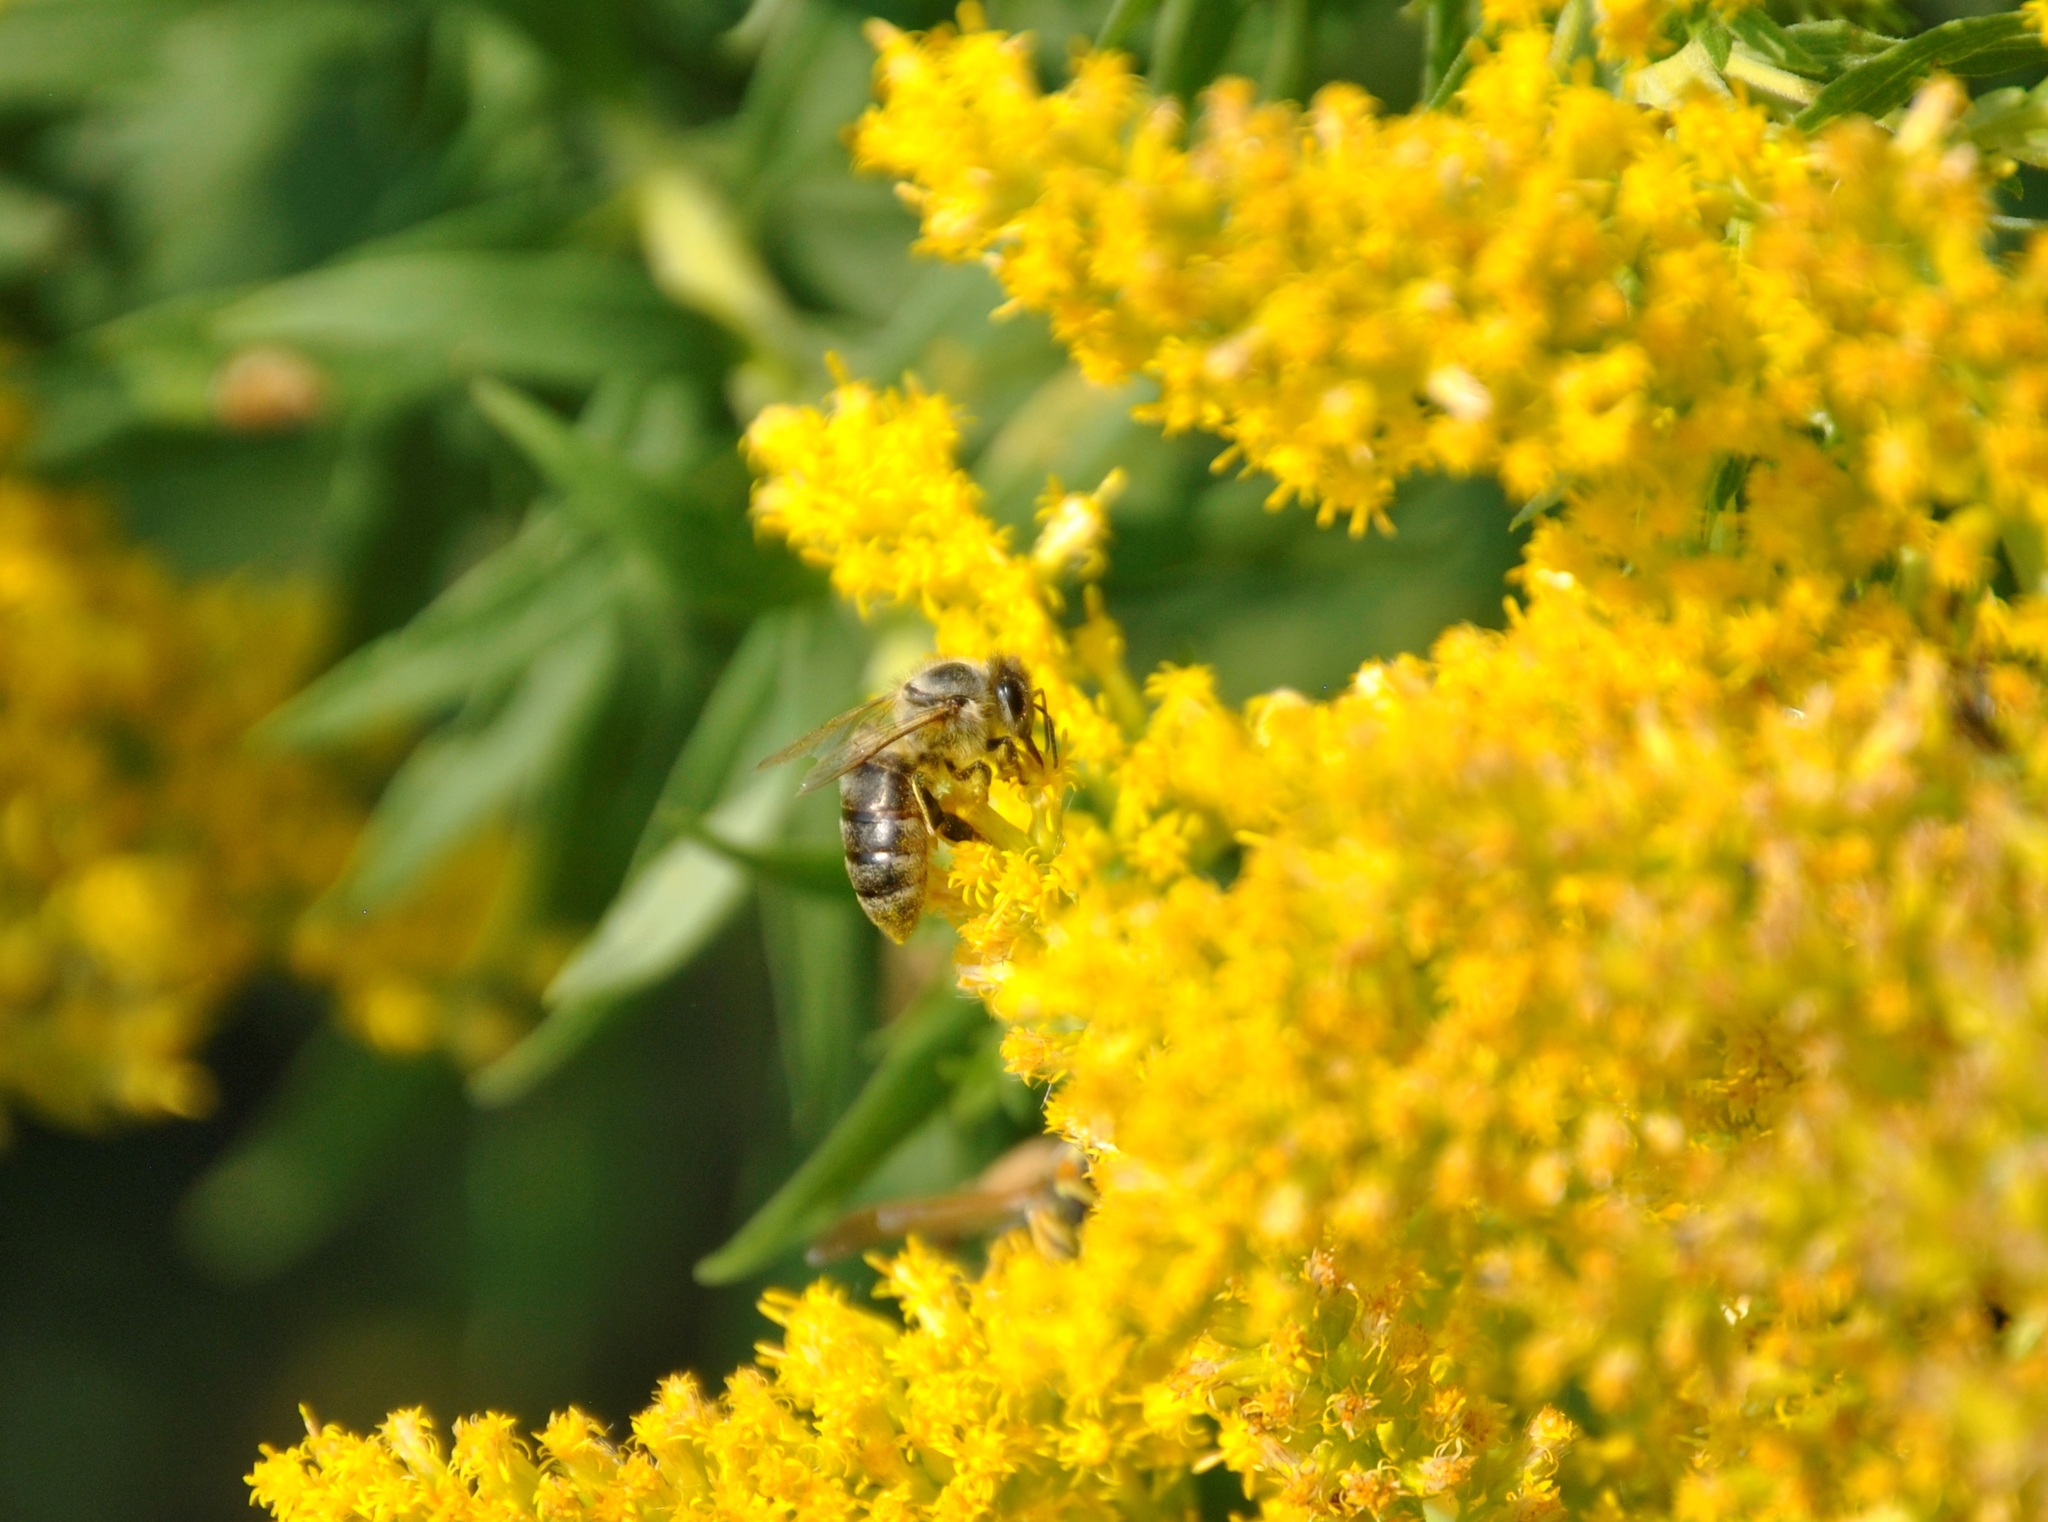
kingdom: Animalia
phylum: Arthropoda
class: Insecta
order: Hymenoptera
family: Apidae
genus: Apis
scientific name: Apis mellifera
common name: Honey bee
